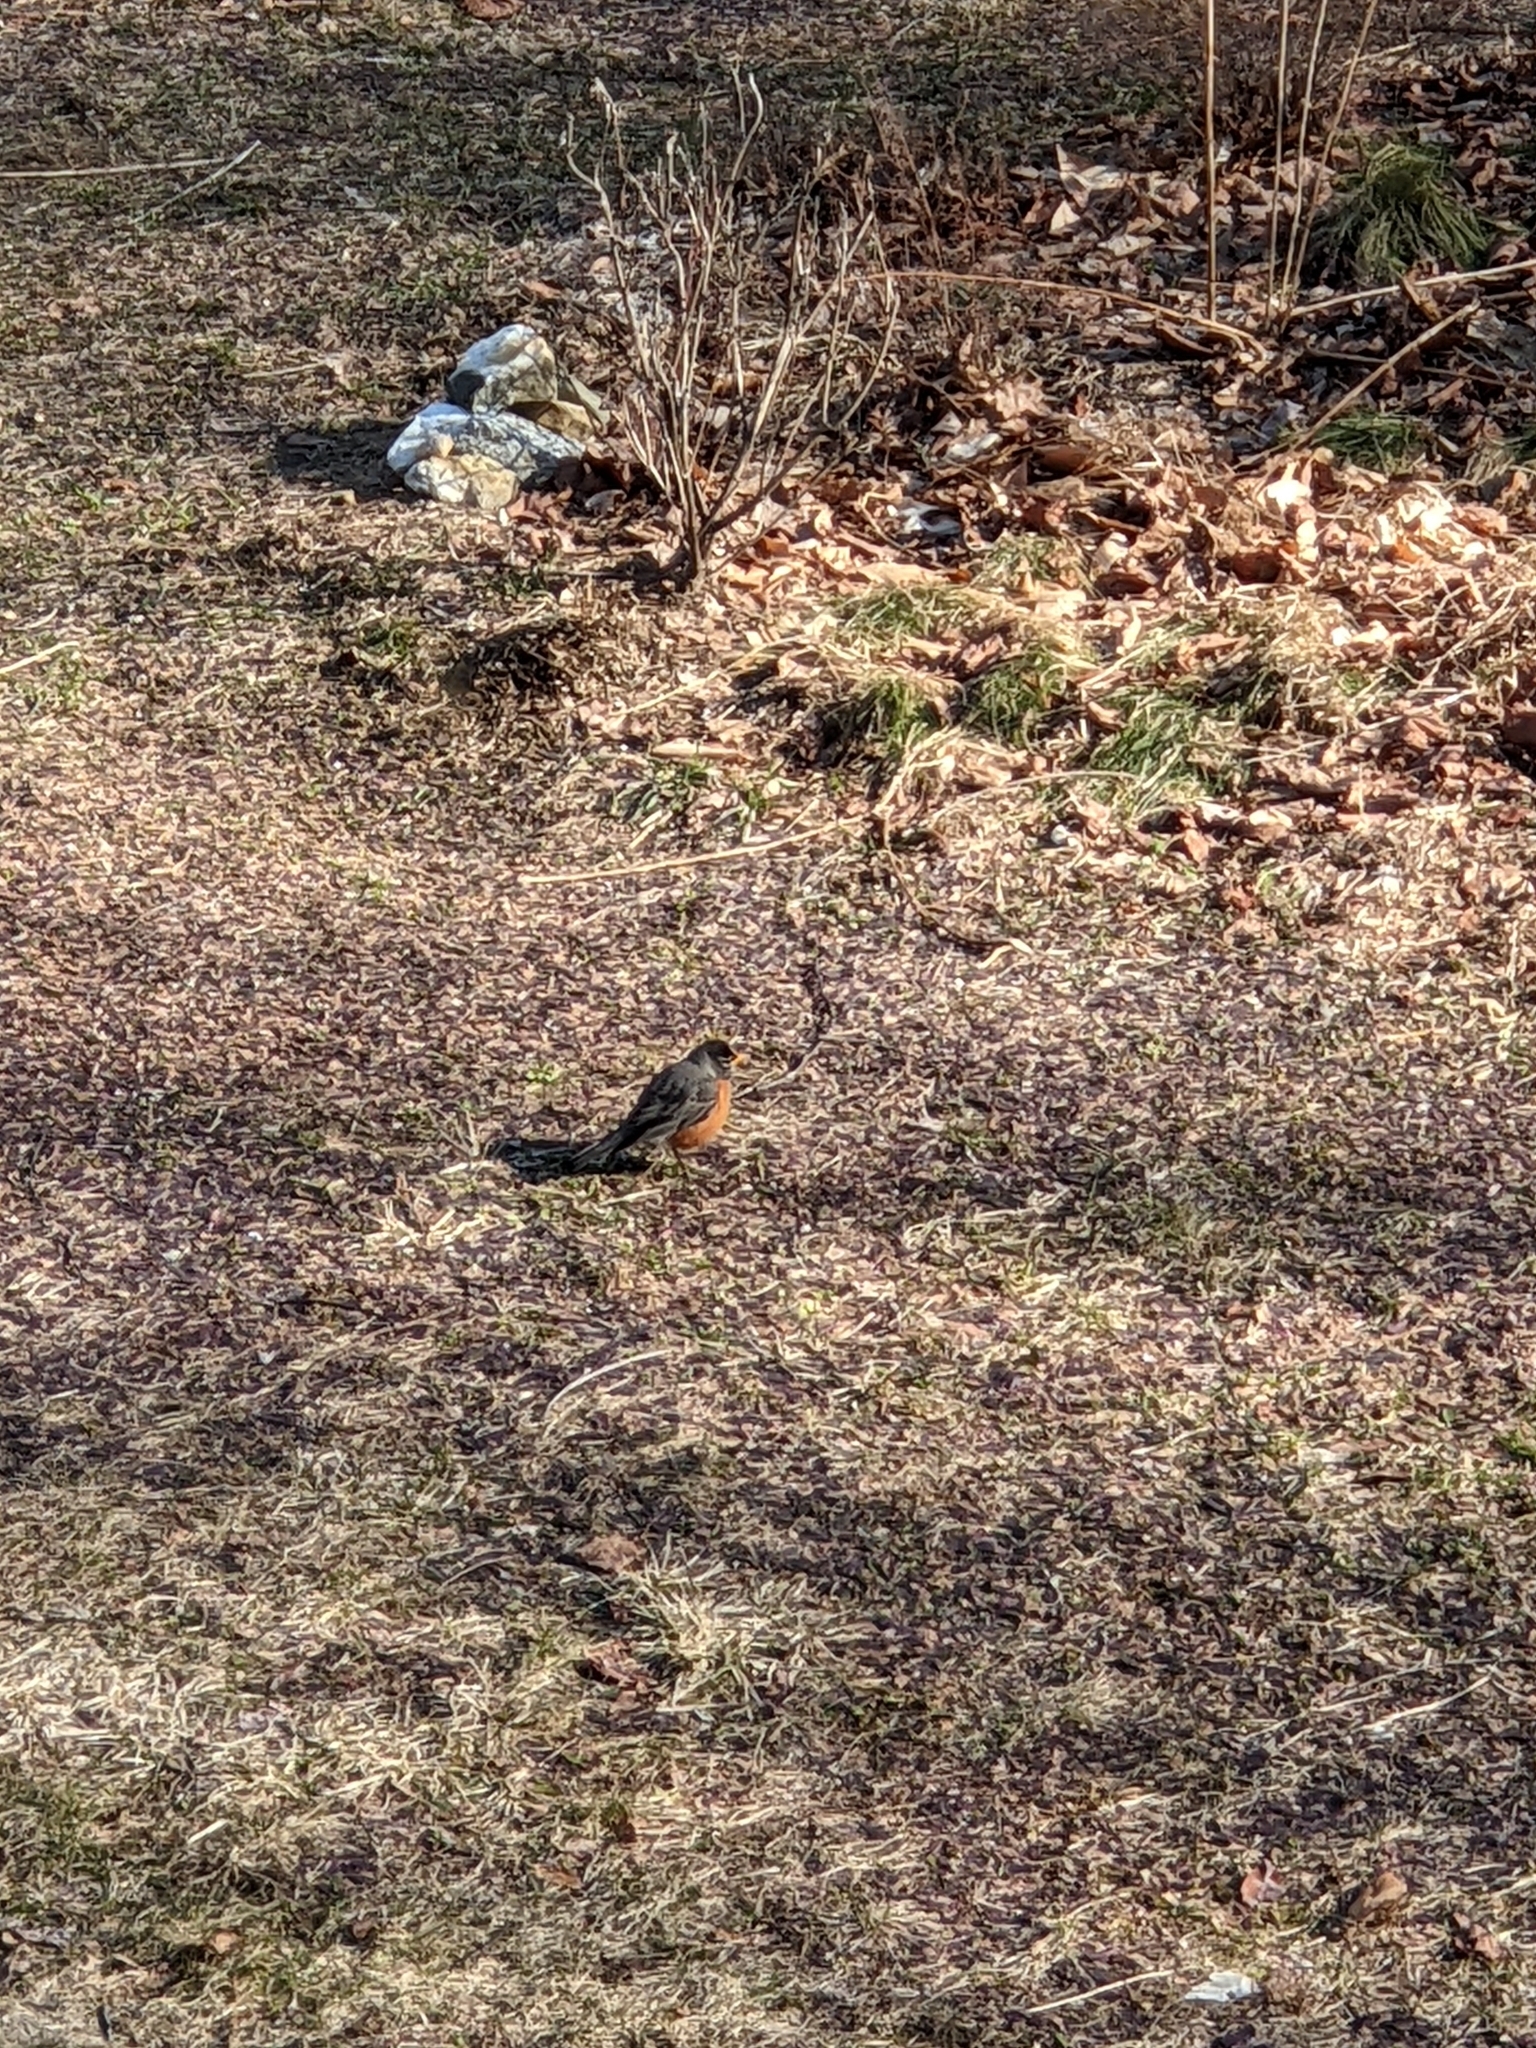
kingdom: Animalia
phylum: Chordata
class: Aves
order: Passeriformes
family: Turdidae
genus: Turdus
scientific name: Turdus migratorius
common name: American robin
